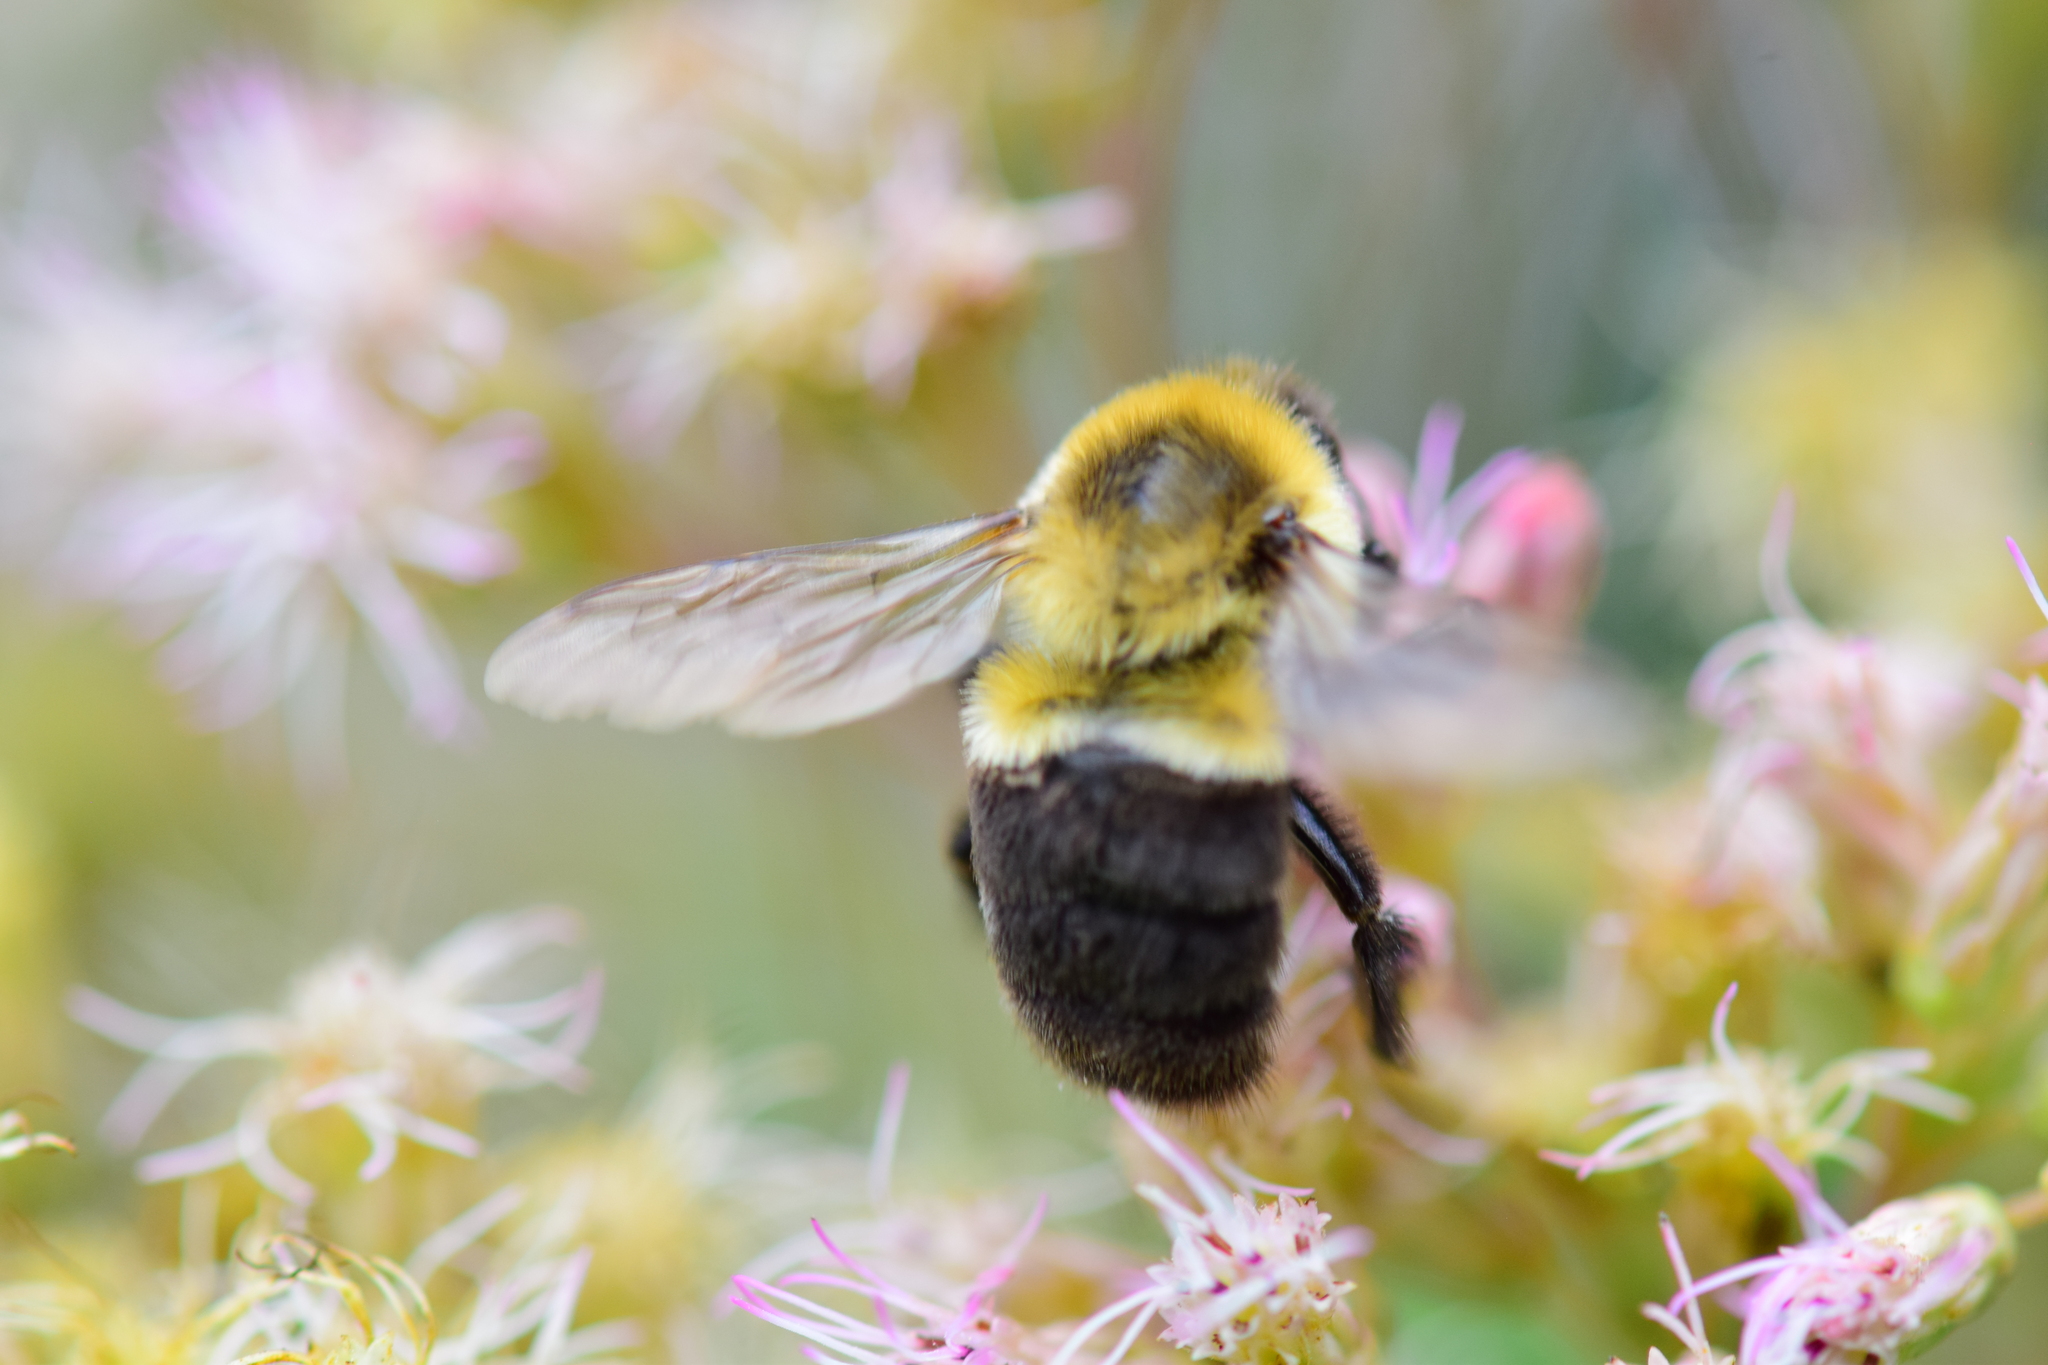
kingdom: Animalia
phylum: Arthropoda
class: Insecta
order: Hymenoptera
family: Apidae
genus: Bombus
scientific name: Bombus impatiens
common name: Common eastern bumble bee
